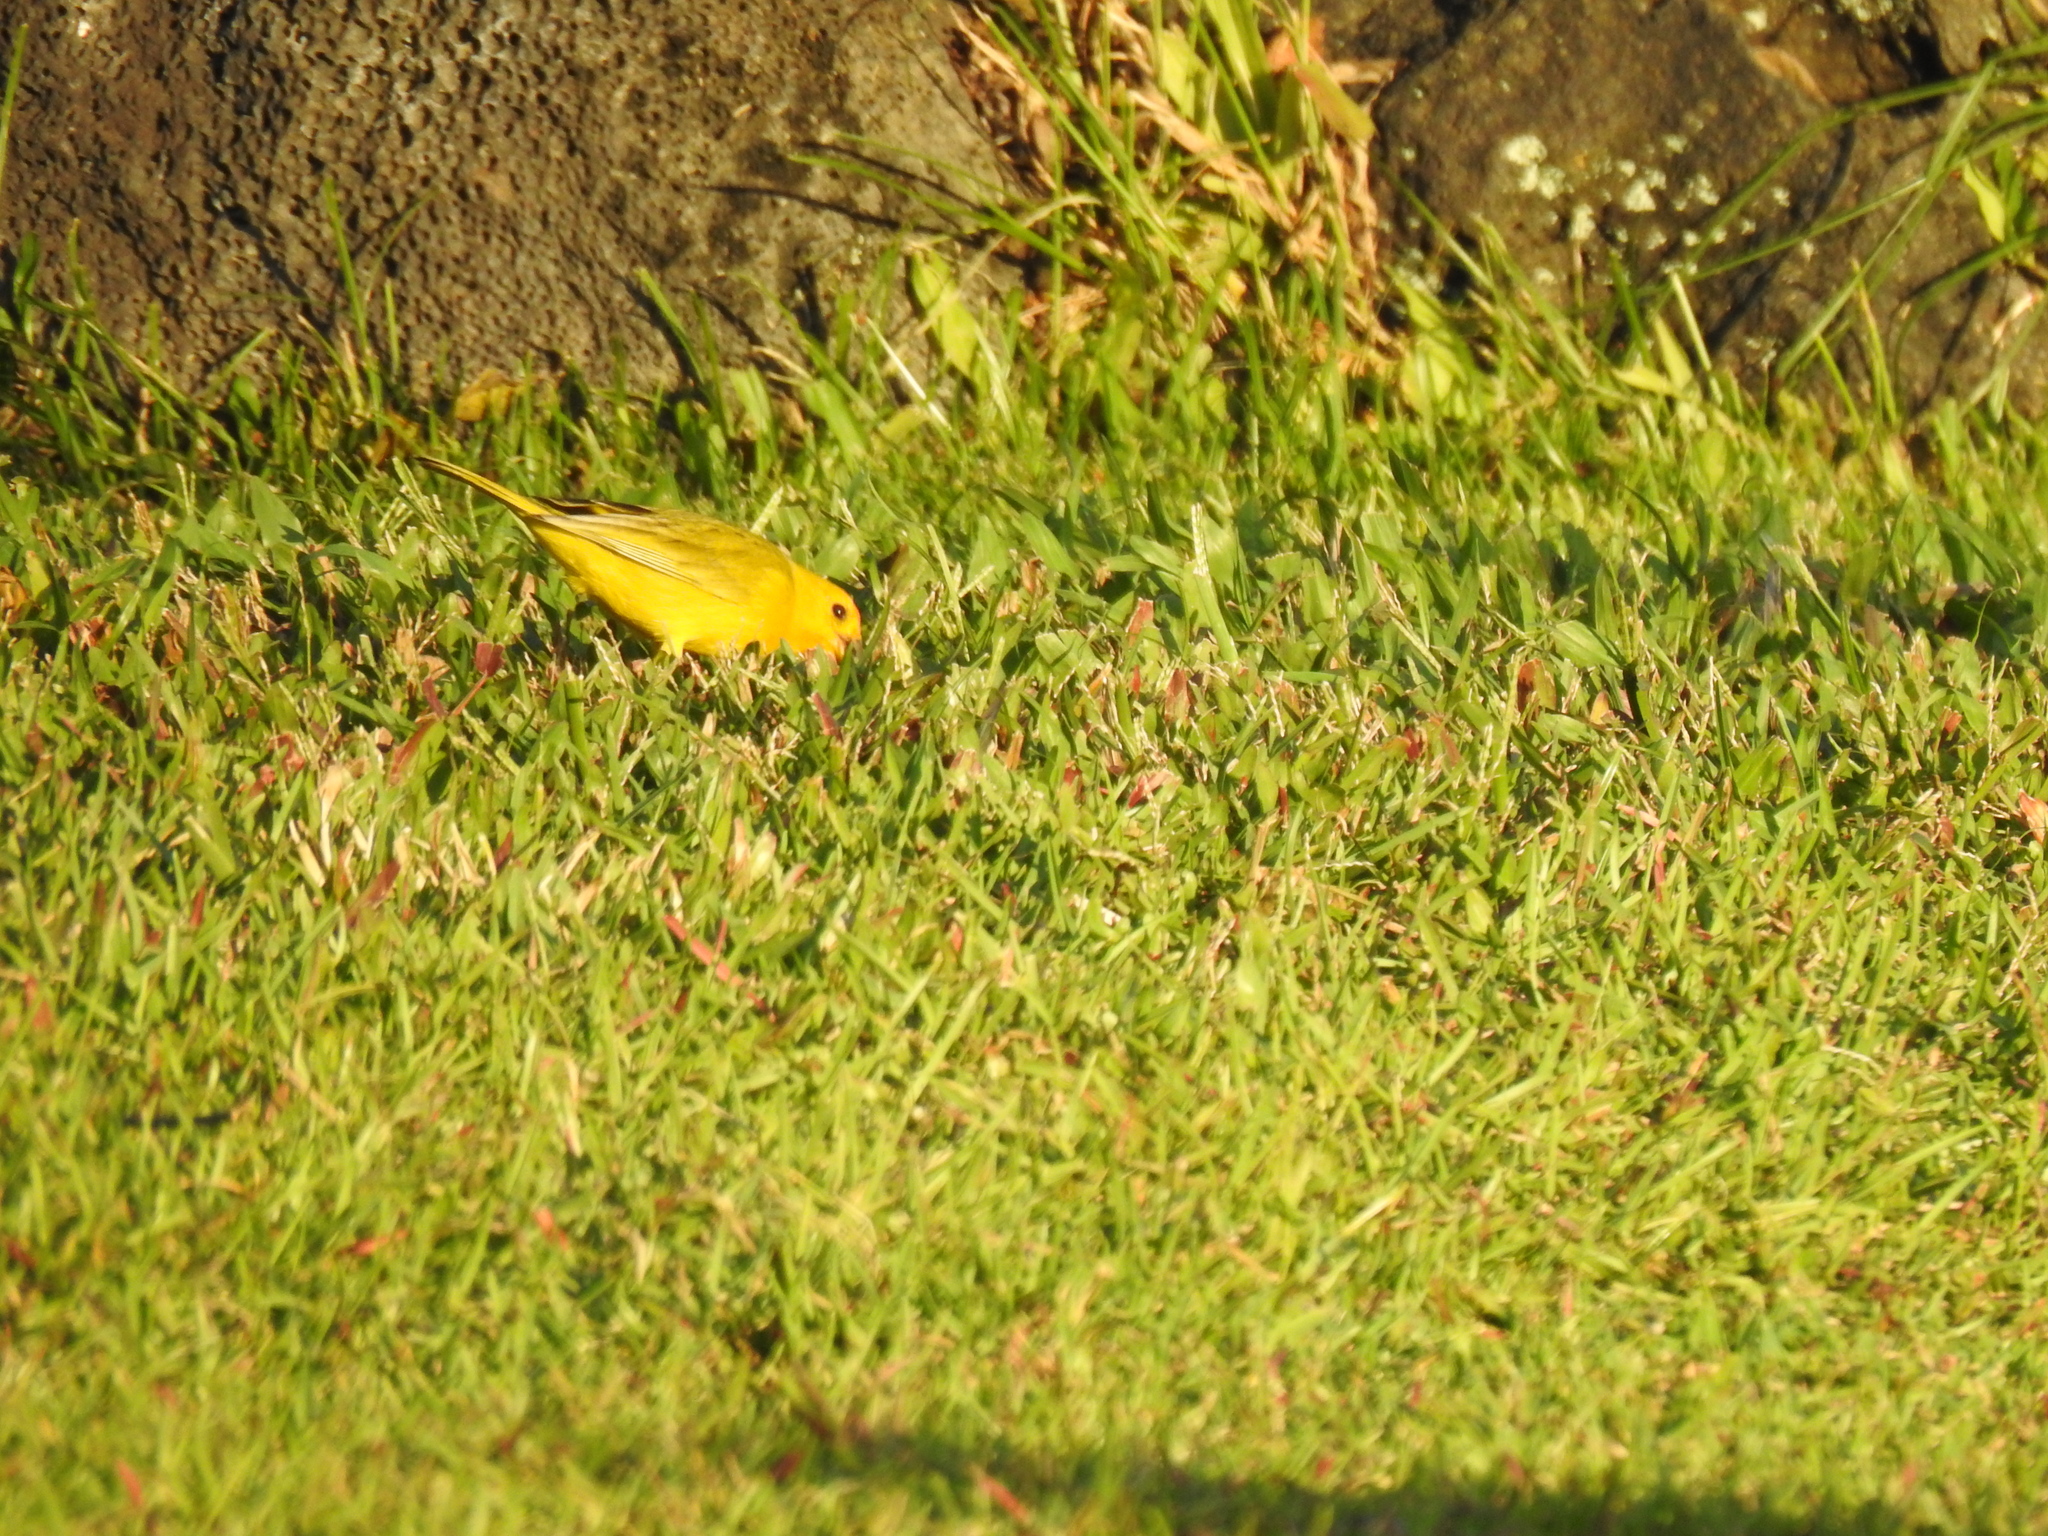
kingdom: Animalia
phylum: Chordata
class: Aves
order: Passeriformes
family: Thraupidae
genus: Sicalis
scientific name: Sicalis flaveola
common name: Saffron finch
